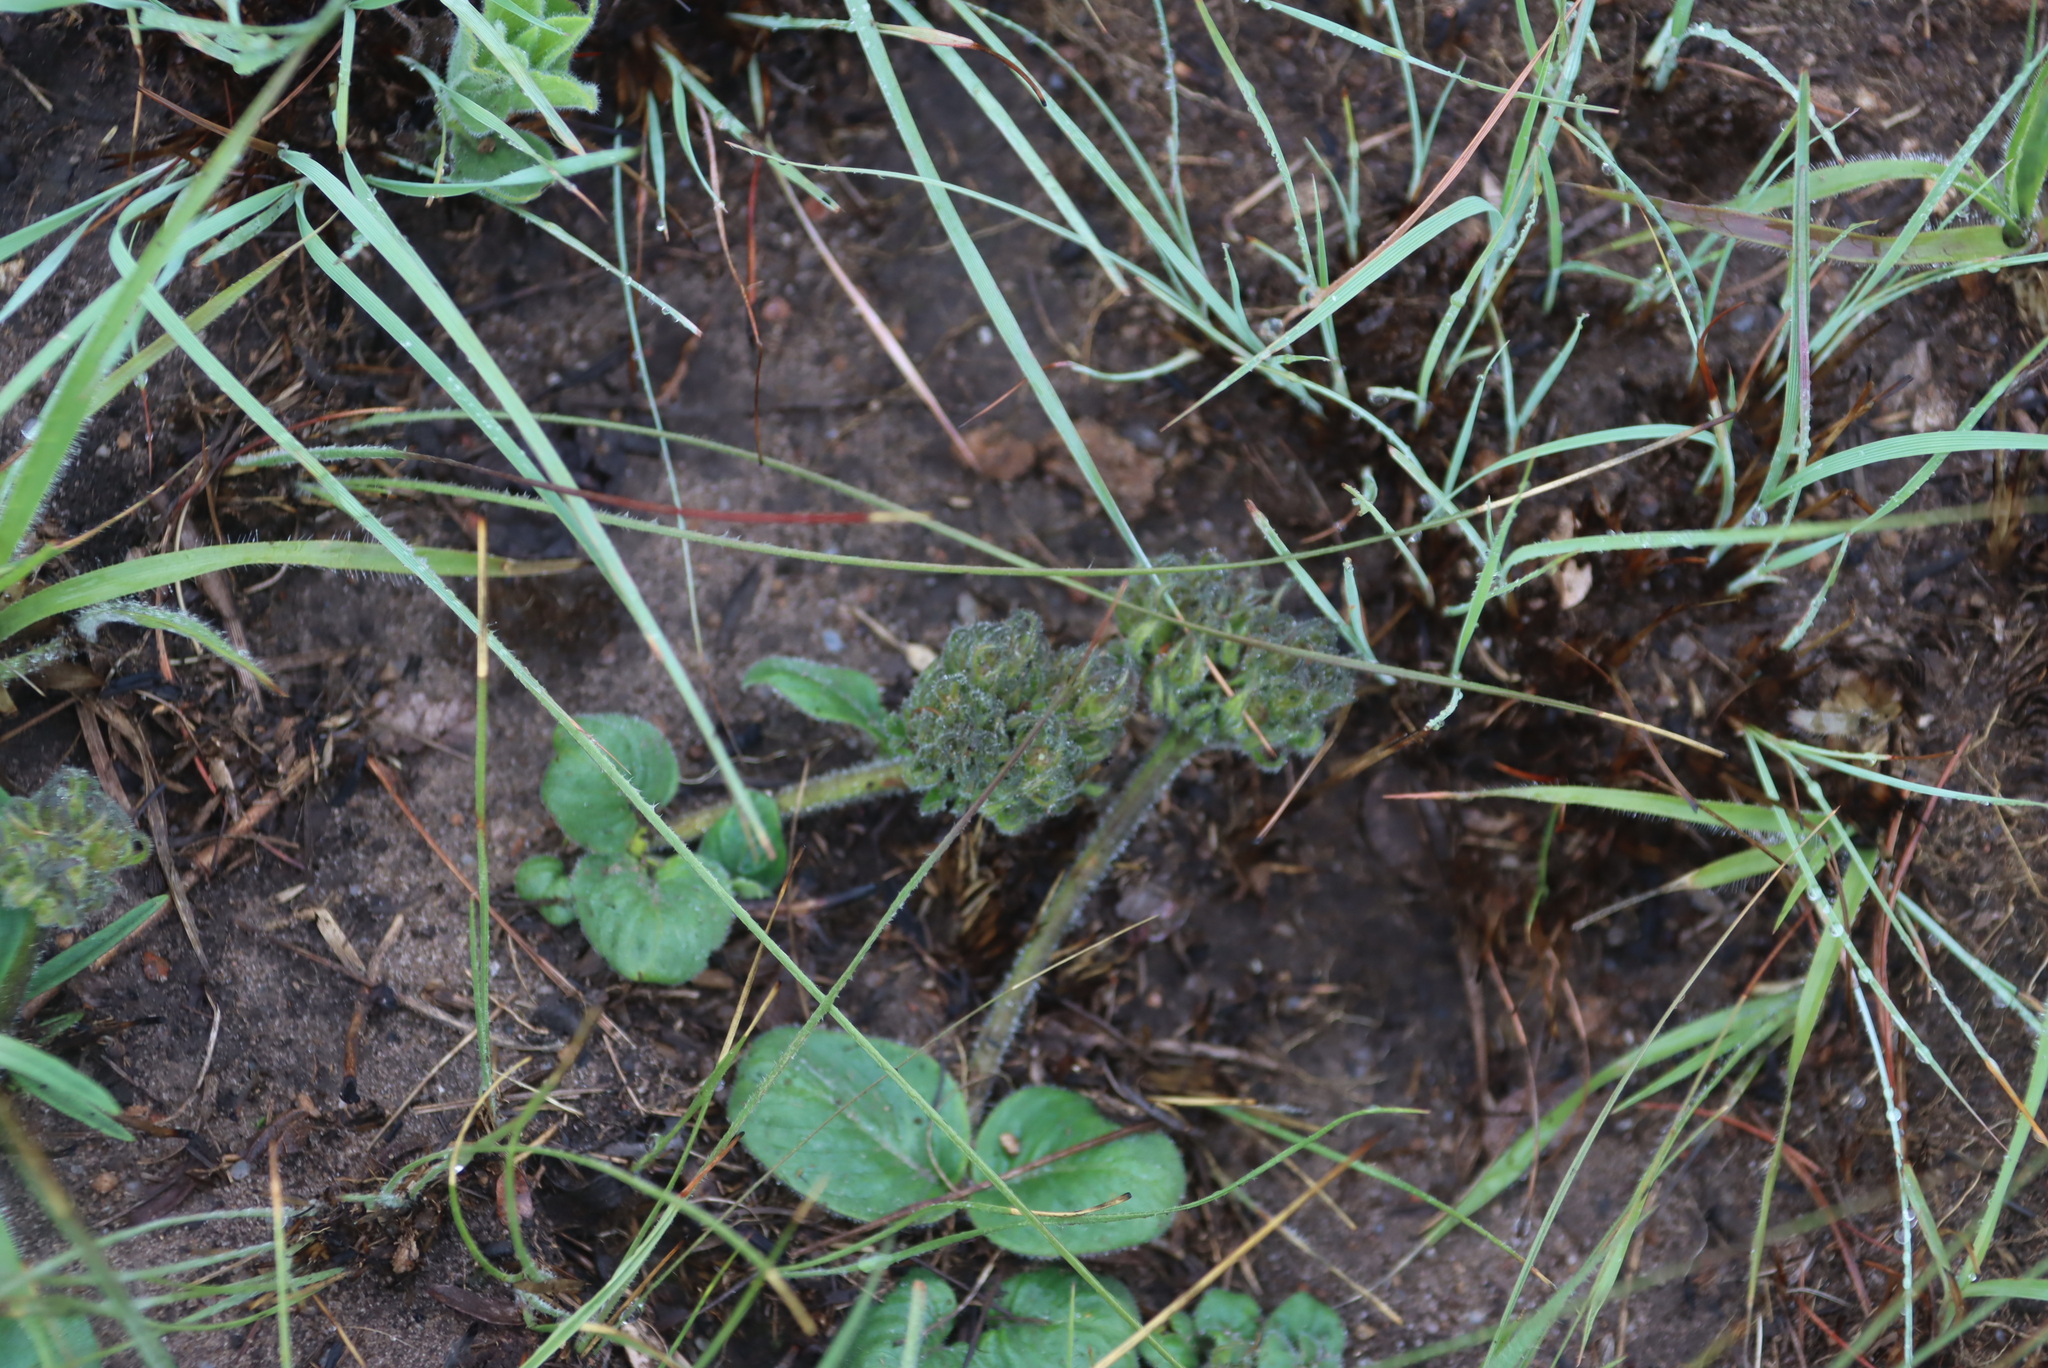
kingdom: Plantae
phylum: Tracheophyta
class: Magnoliopsida
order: Gentianales
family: Rubiaceae
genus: Pentanisia
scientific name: Pentanisia prunelloides
